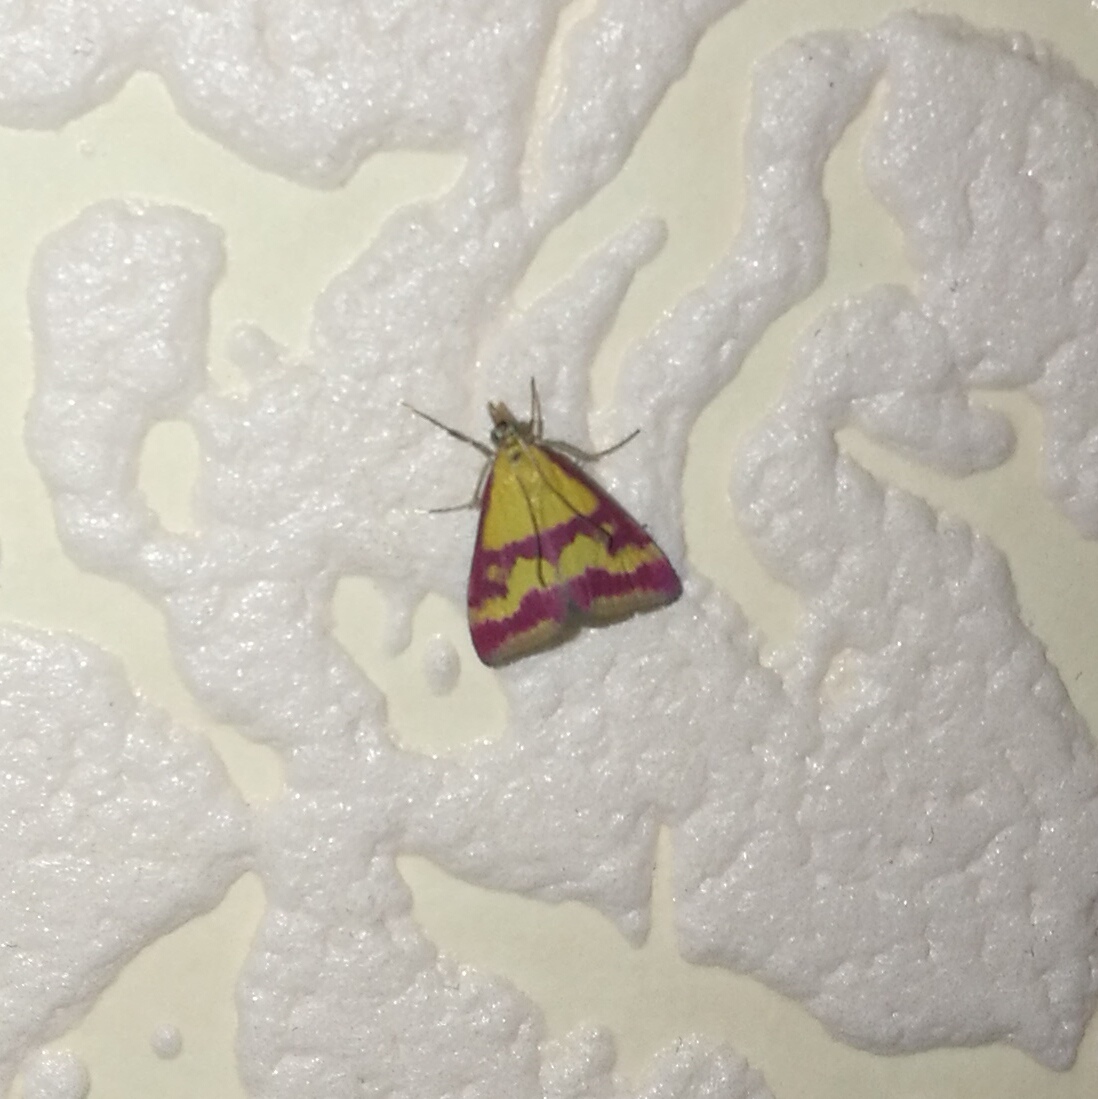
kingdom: Animalia
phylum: Arthropoda
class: Insecta
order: Lepidoptera
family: Crambidae
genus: Pyrausta
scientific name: Pyrausta sanguinalis
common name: Scarce crimson and gold
